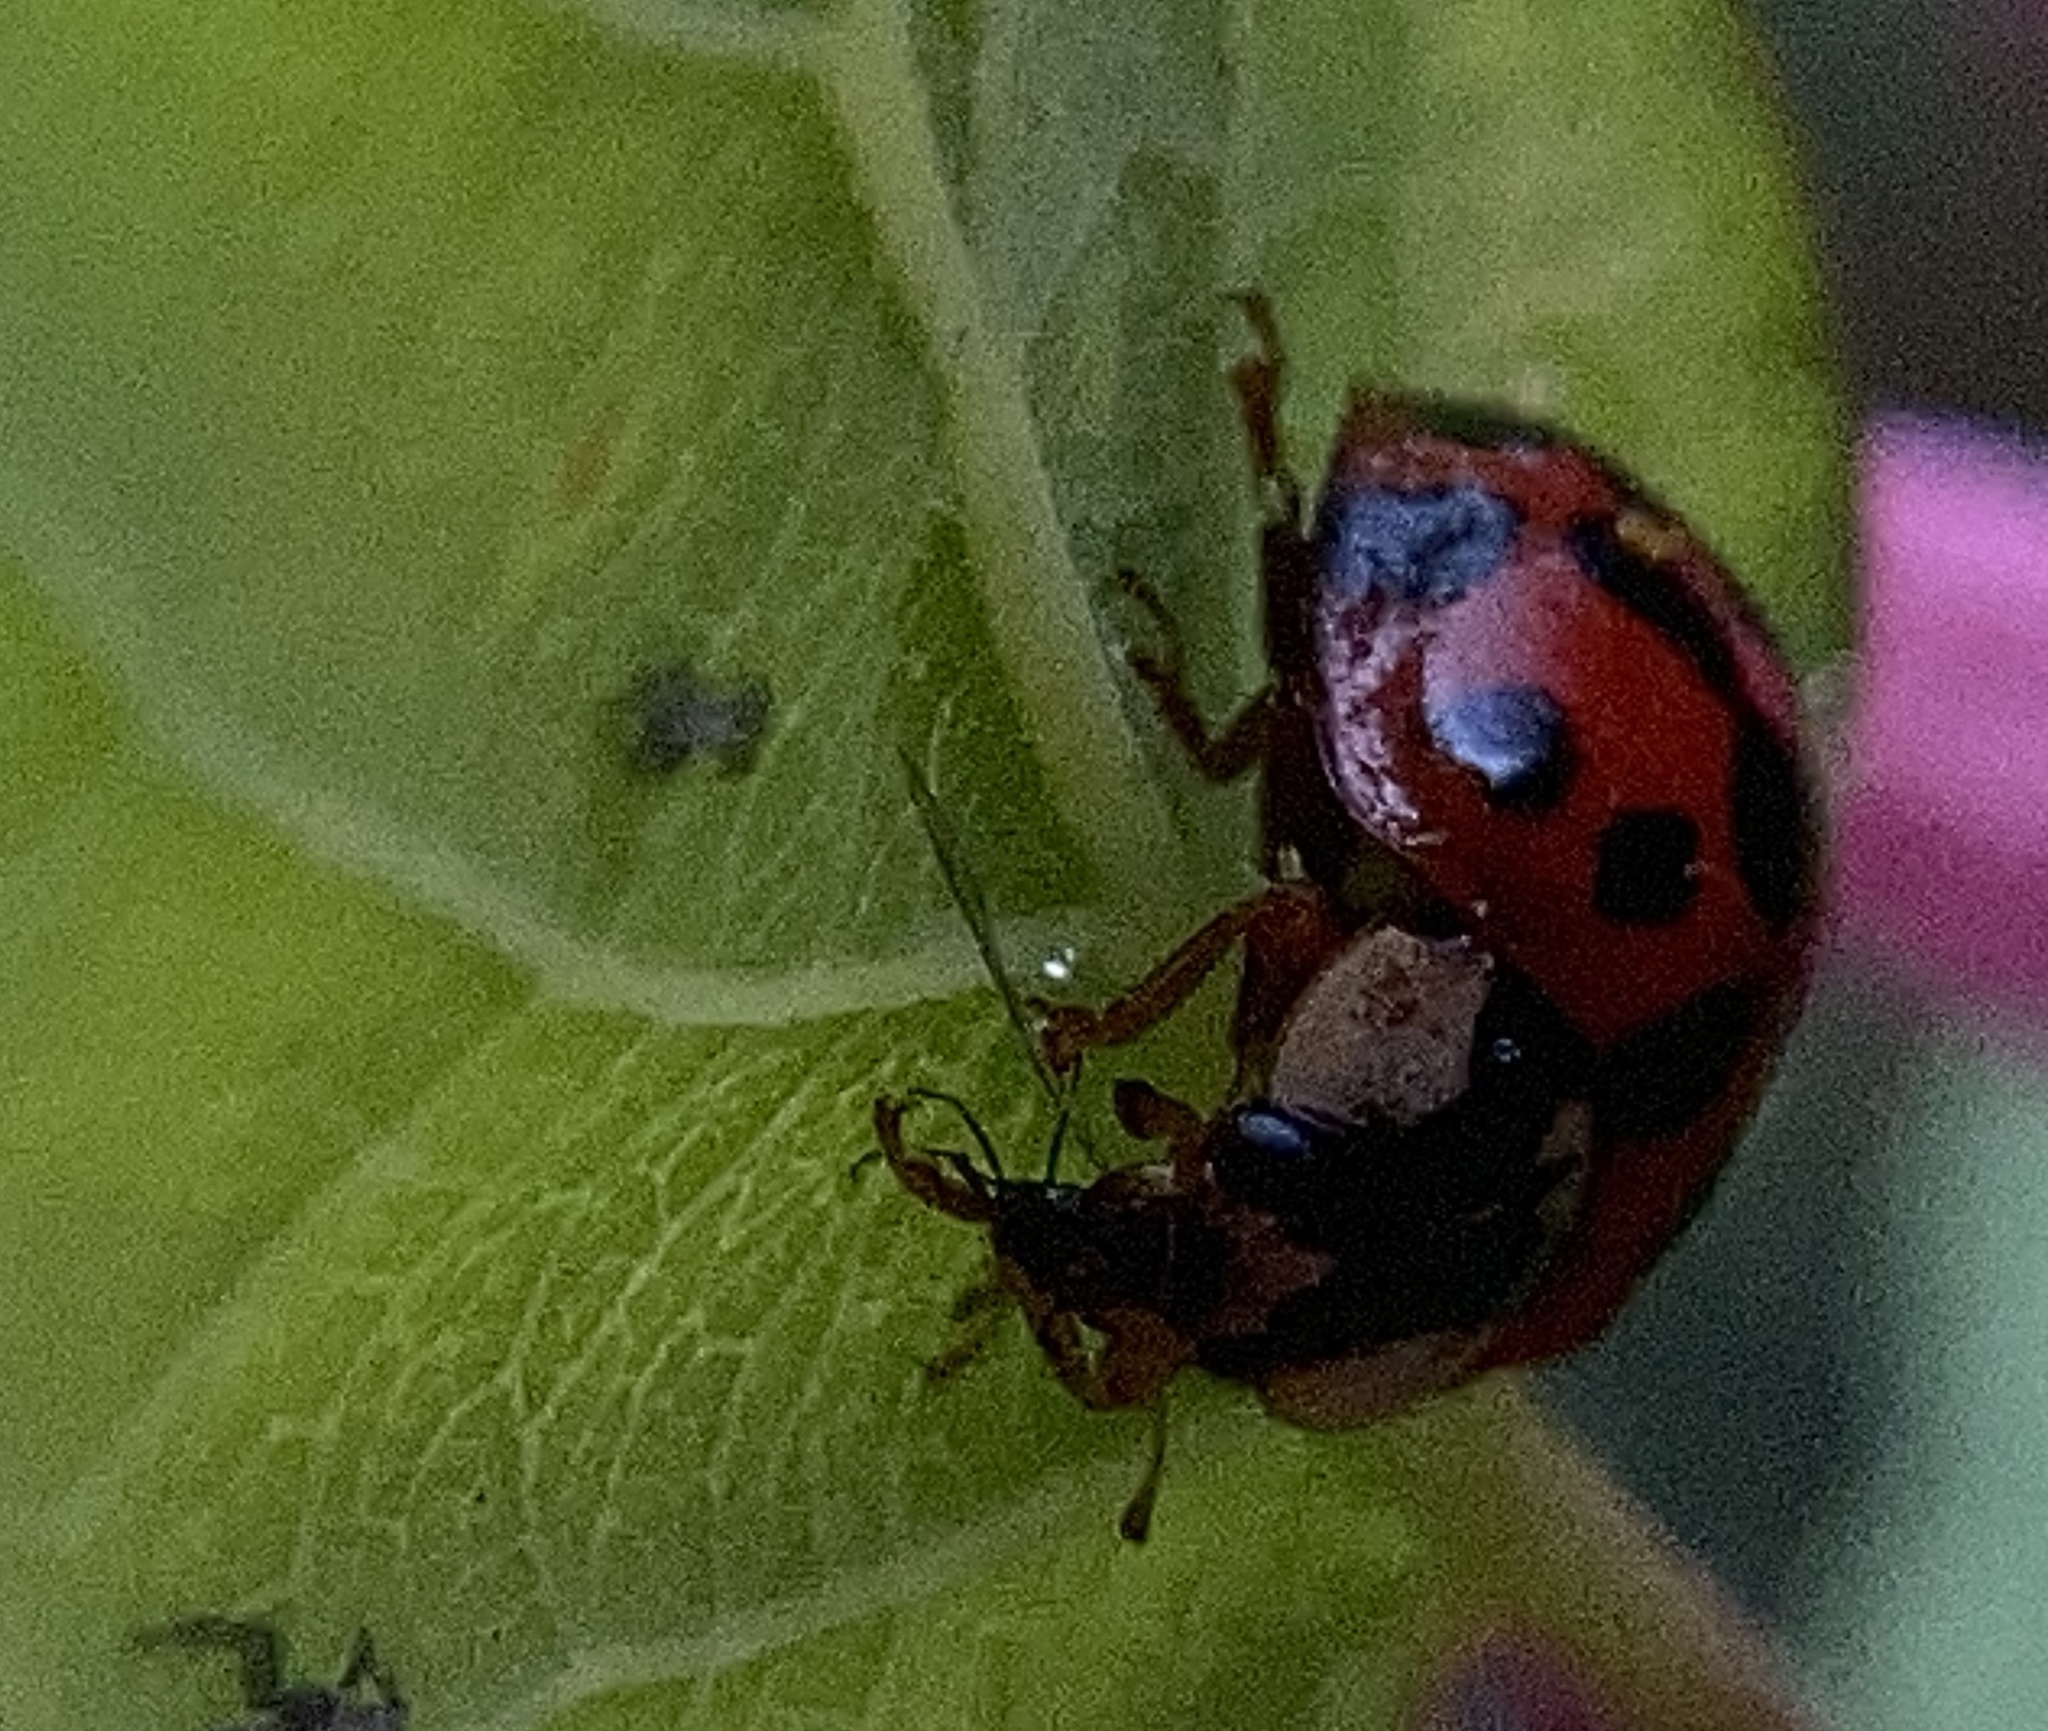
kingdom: Animalia
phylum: Arthropoda
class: Insecta
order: Coleoptera
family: Coccinellidae
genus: Harmonia
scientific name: Harmonia axyridis
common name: Harlequin ladybird
